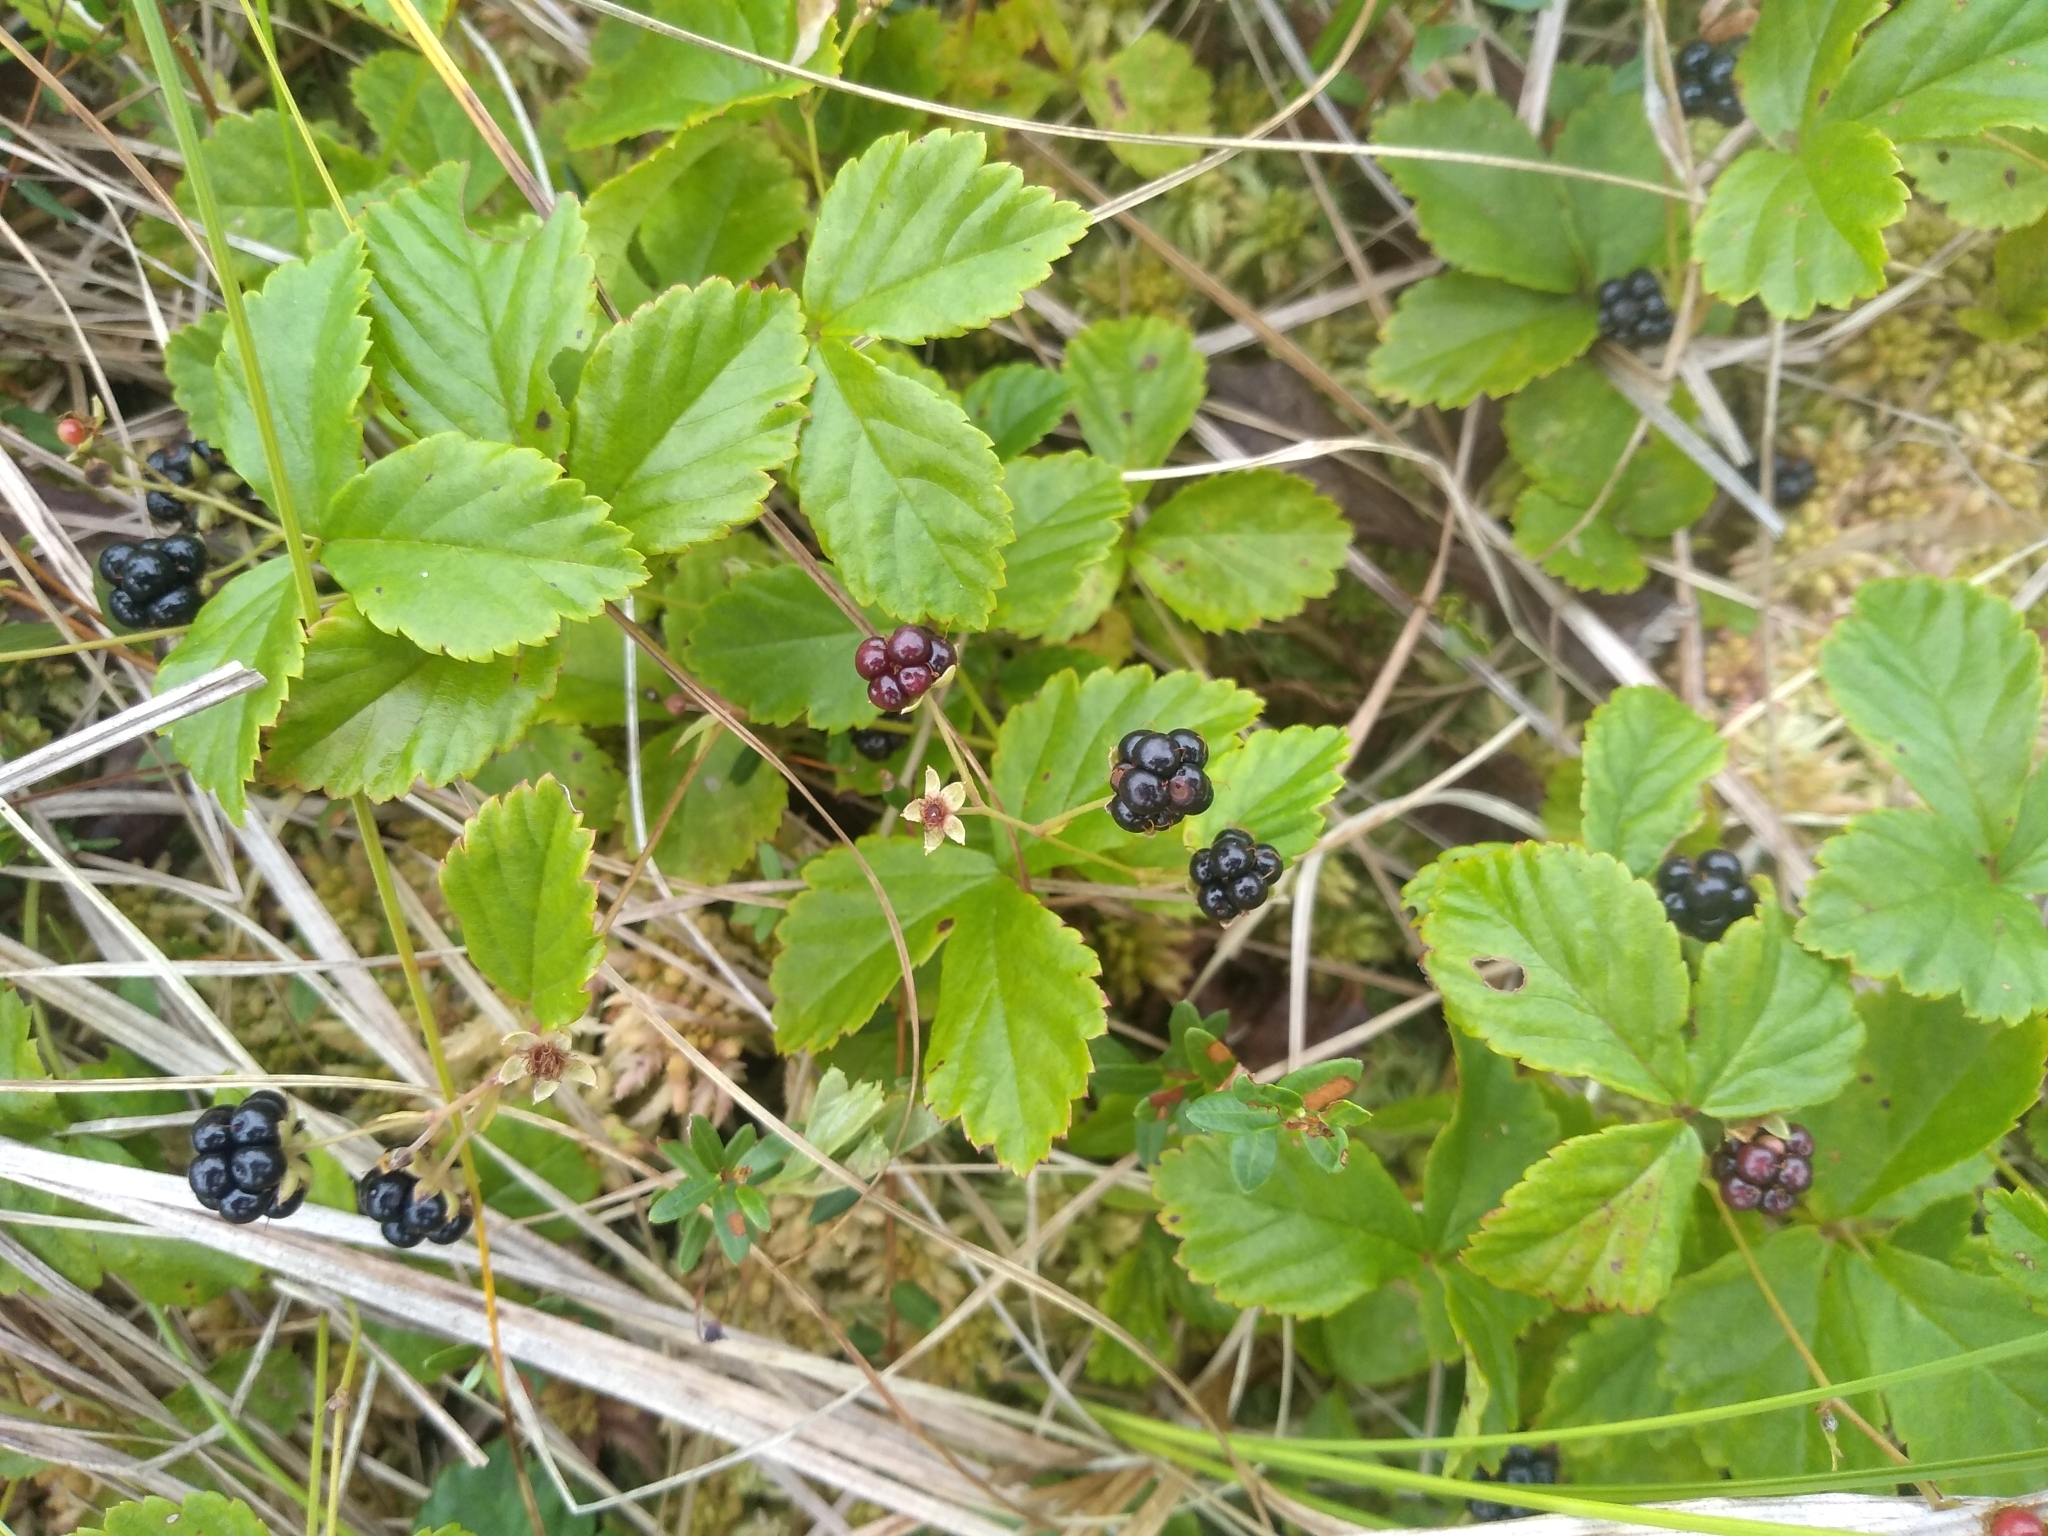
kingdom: Plantae
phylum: Tracheophyta
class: Magnoliopsida
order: Rosales
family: Rosaceae
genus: Rubus
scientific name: Rubus hispidus
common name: Running blackberry
